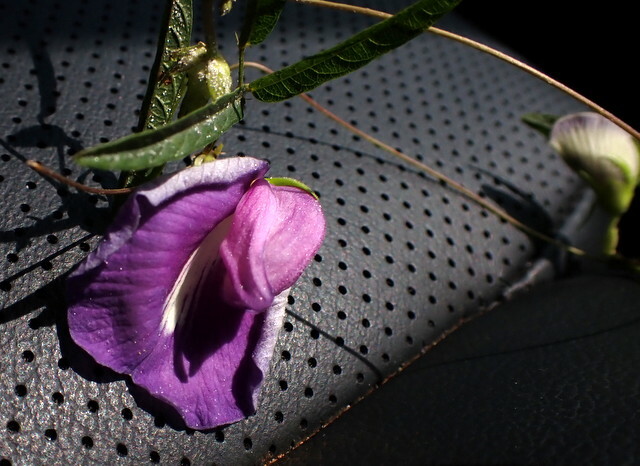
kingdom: Plantae
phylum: Tracheophyta
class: Magnoliopsida
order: Fabales
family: Fabaceae
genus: Centrosema
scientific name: Centrosema virginianum
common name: Butterfly-pea
